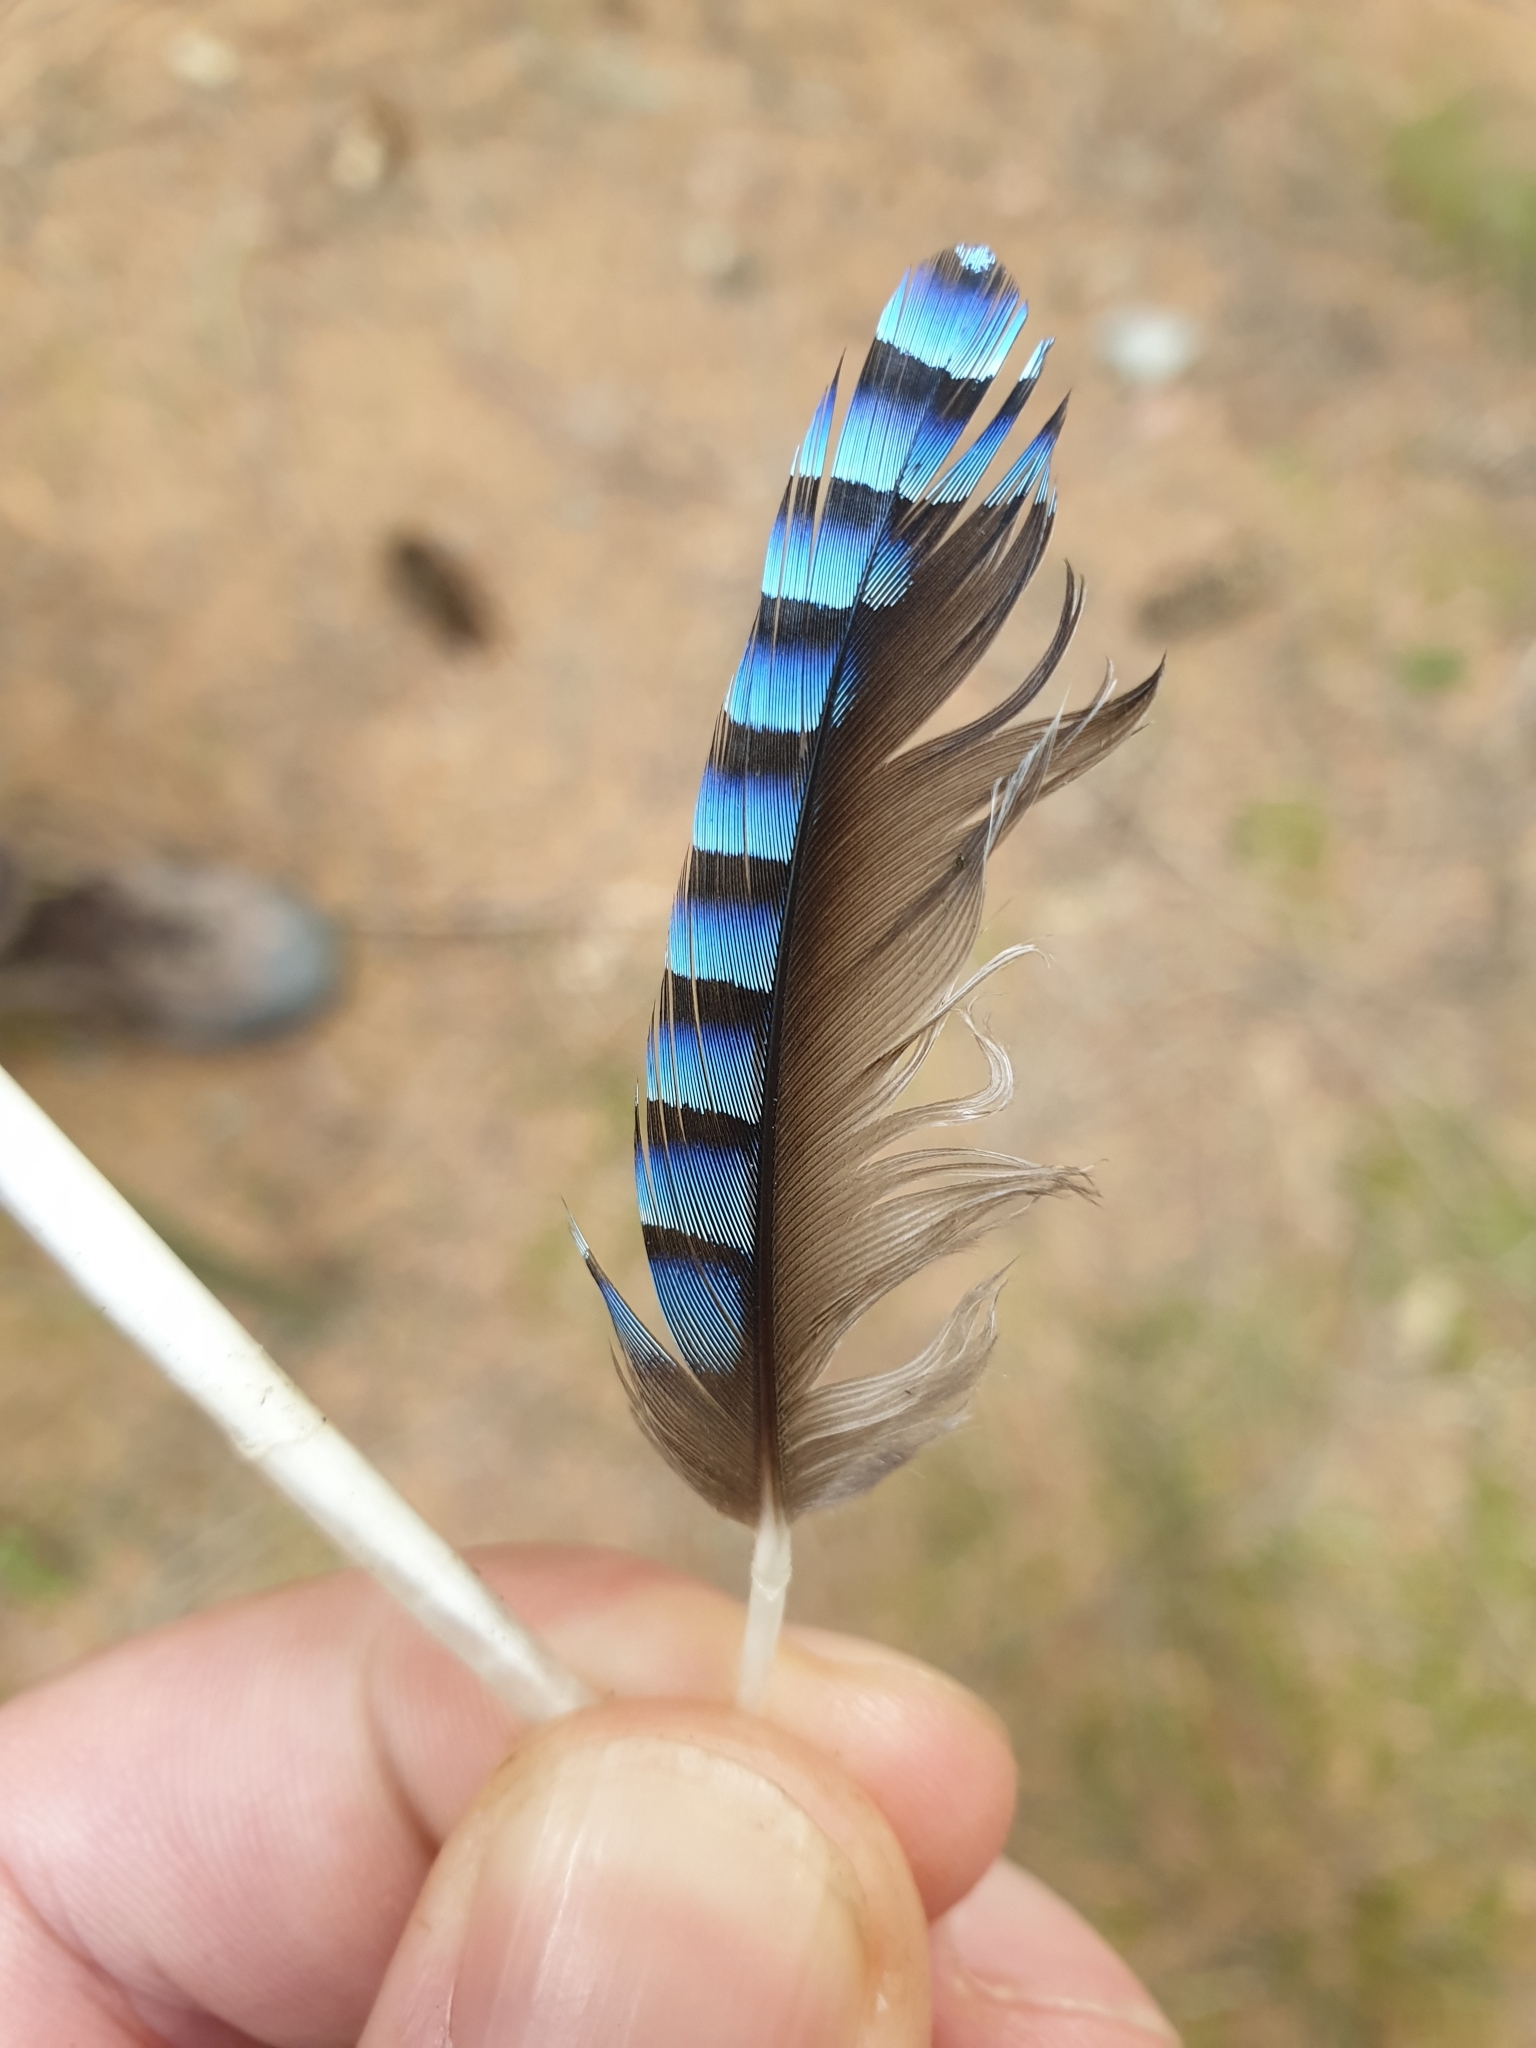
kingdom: Animalia
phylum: Chordata
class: Aves
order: Passeriformes
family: Corvidae
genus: Garrulus
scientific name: Garrulus glandarius
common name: Eurasian jay
